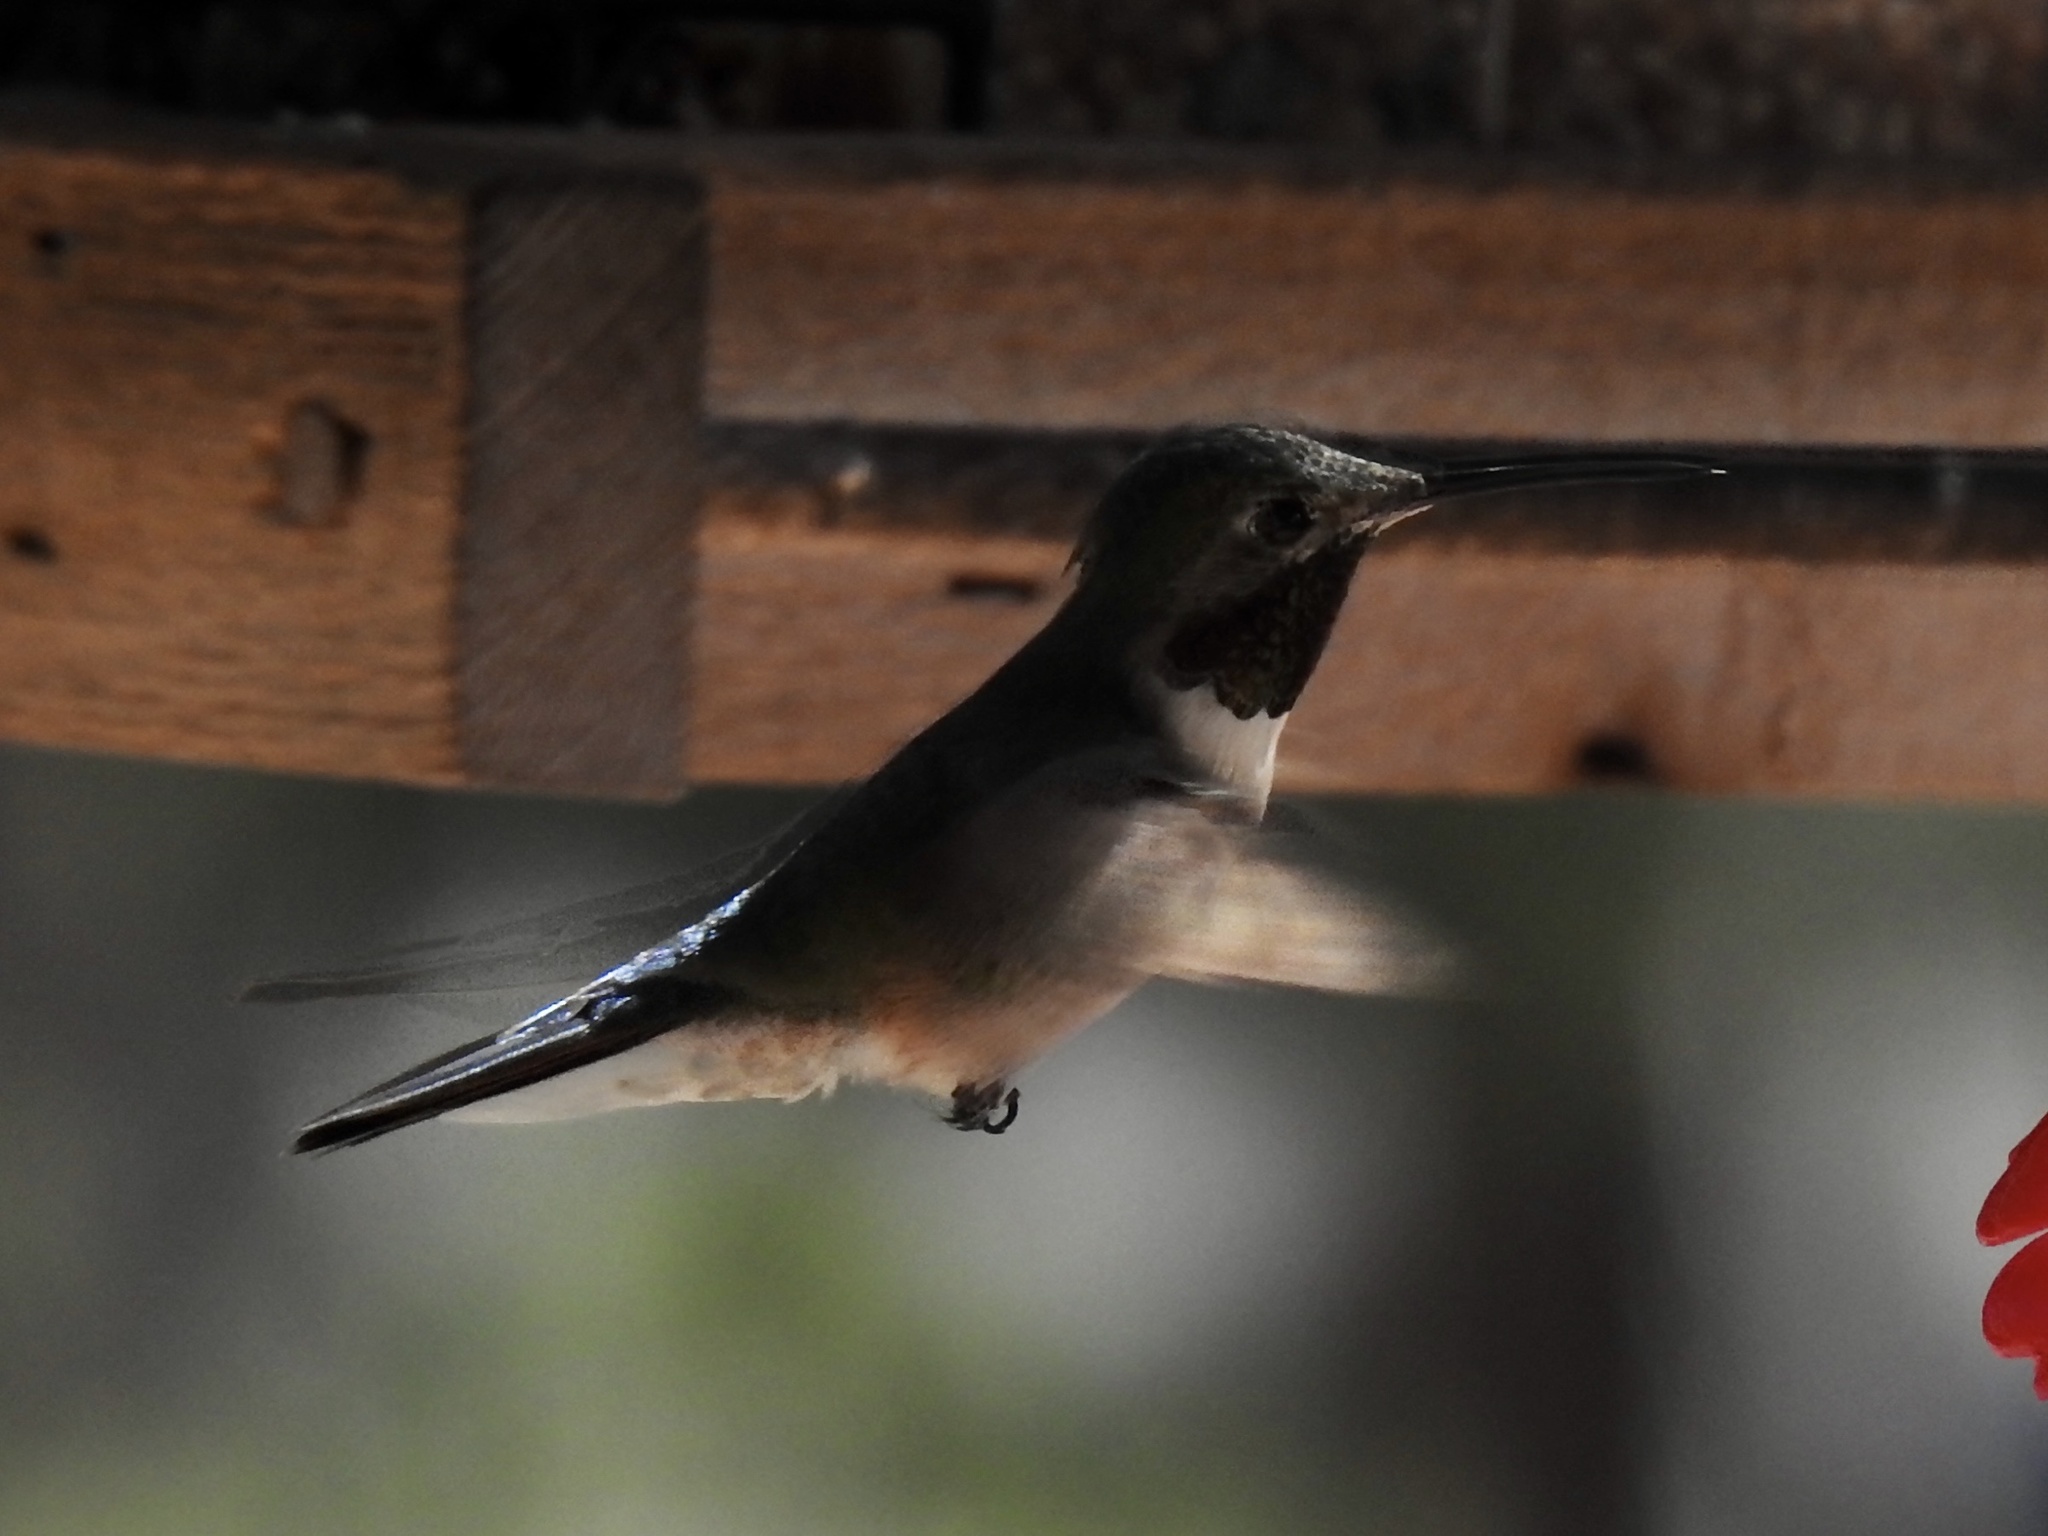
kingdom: Animalia
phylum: Chordata
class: Aves
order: Apodiformes
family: Trochilidae
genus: Selasphorus
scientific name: Selasphorus platycercus
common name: Broad-tailed hummingbird
